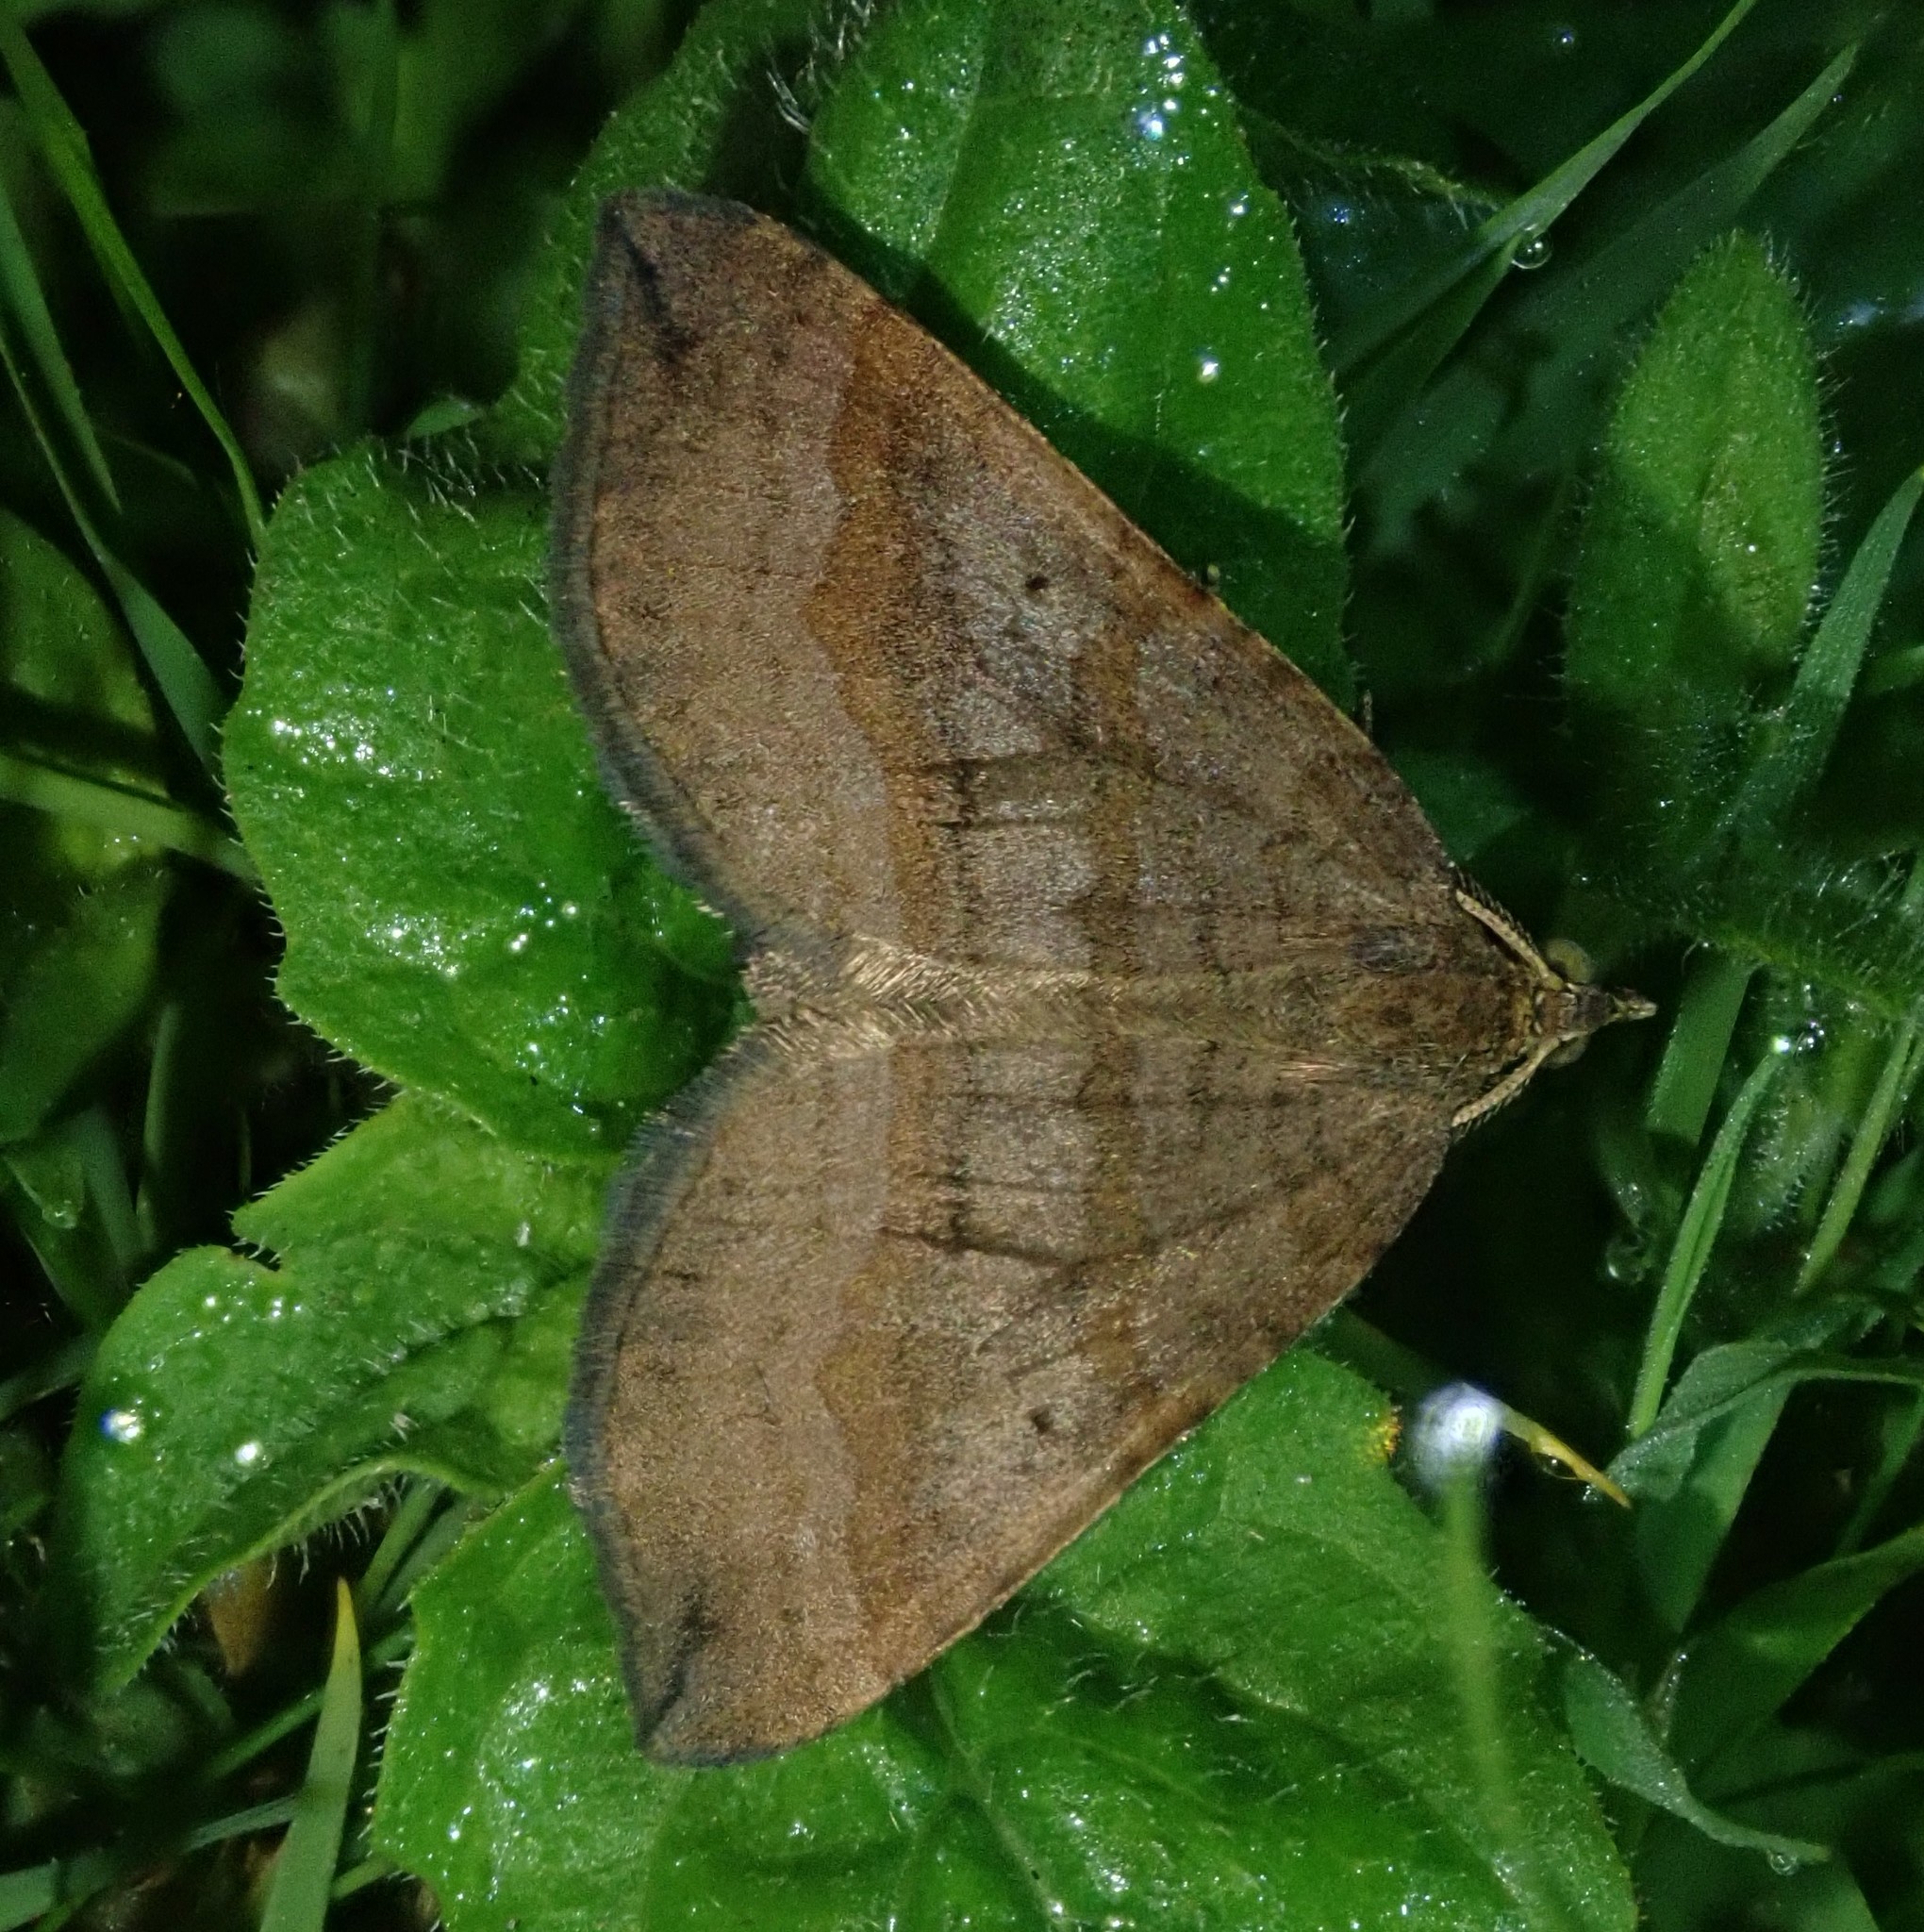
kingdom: Animalia
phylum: Arthropoda
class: Insecta
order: Lepidoptera
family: Geometridae
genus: Scotopteryx
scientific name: Scotopteryx chenopodiata
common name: Shaded broad-bar
